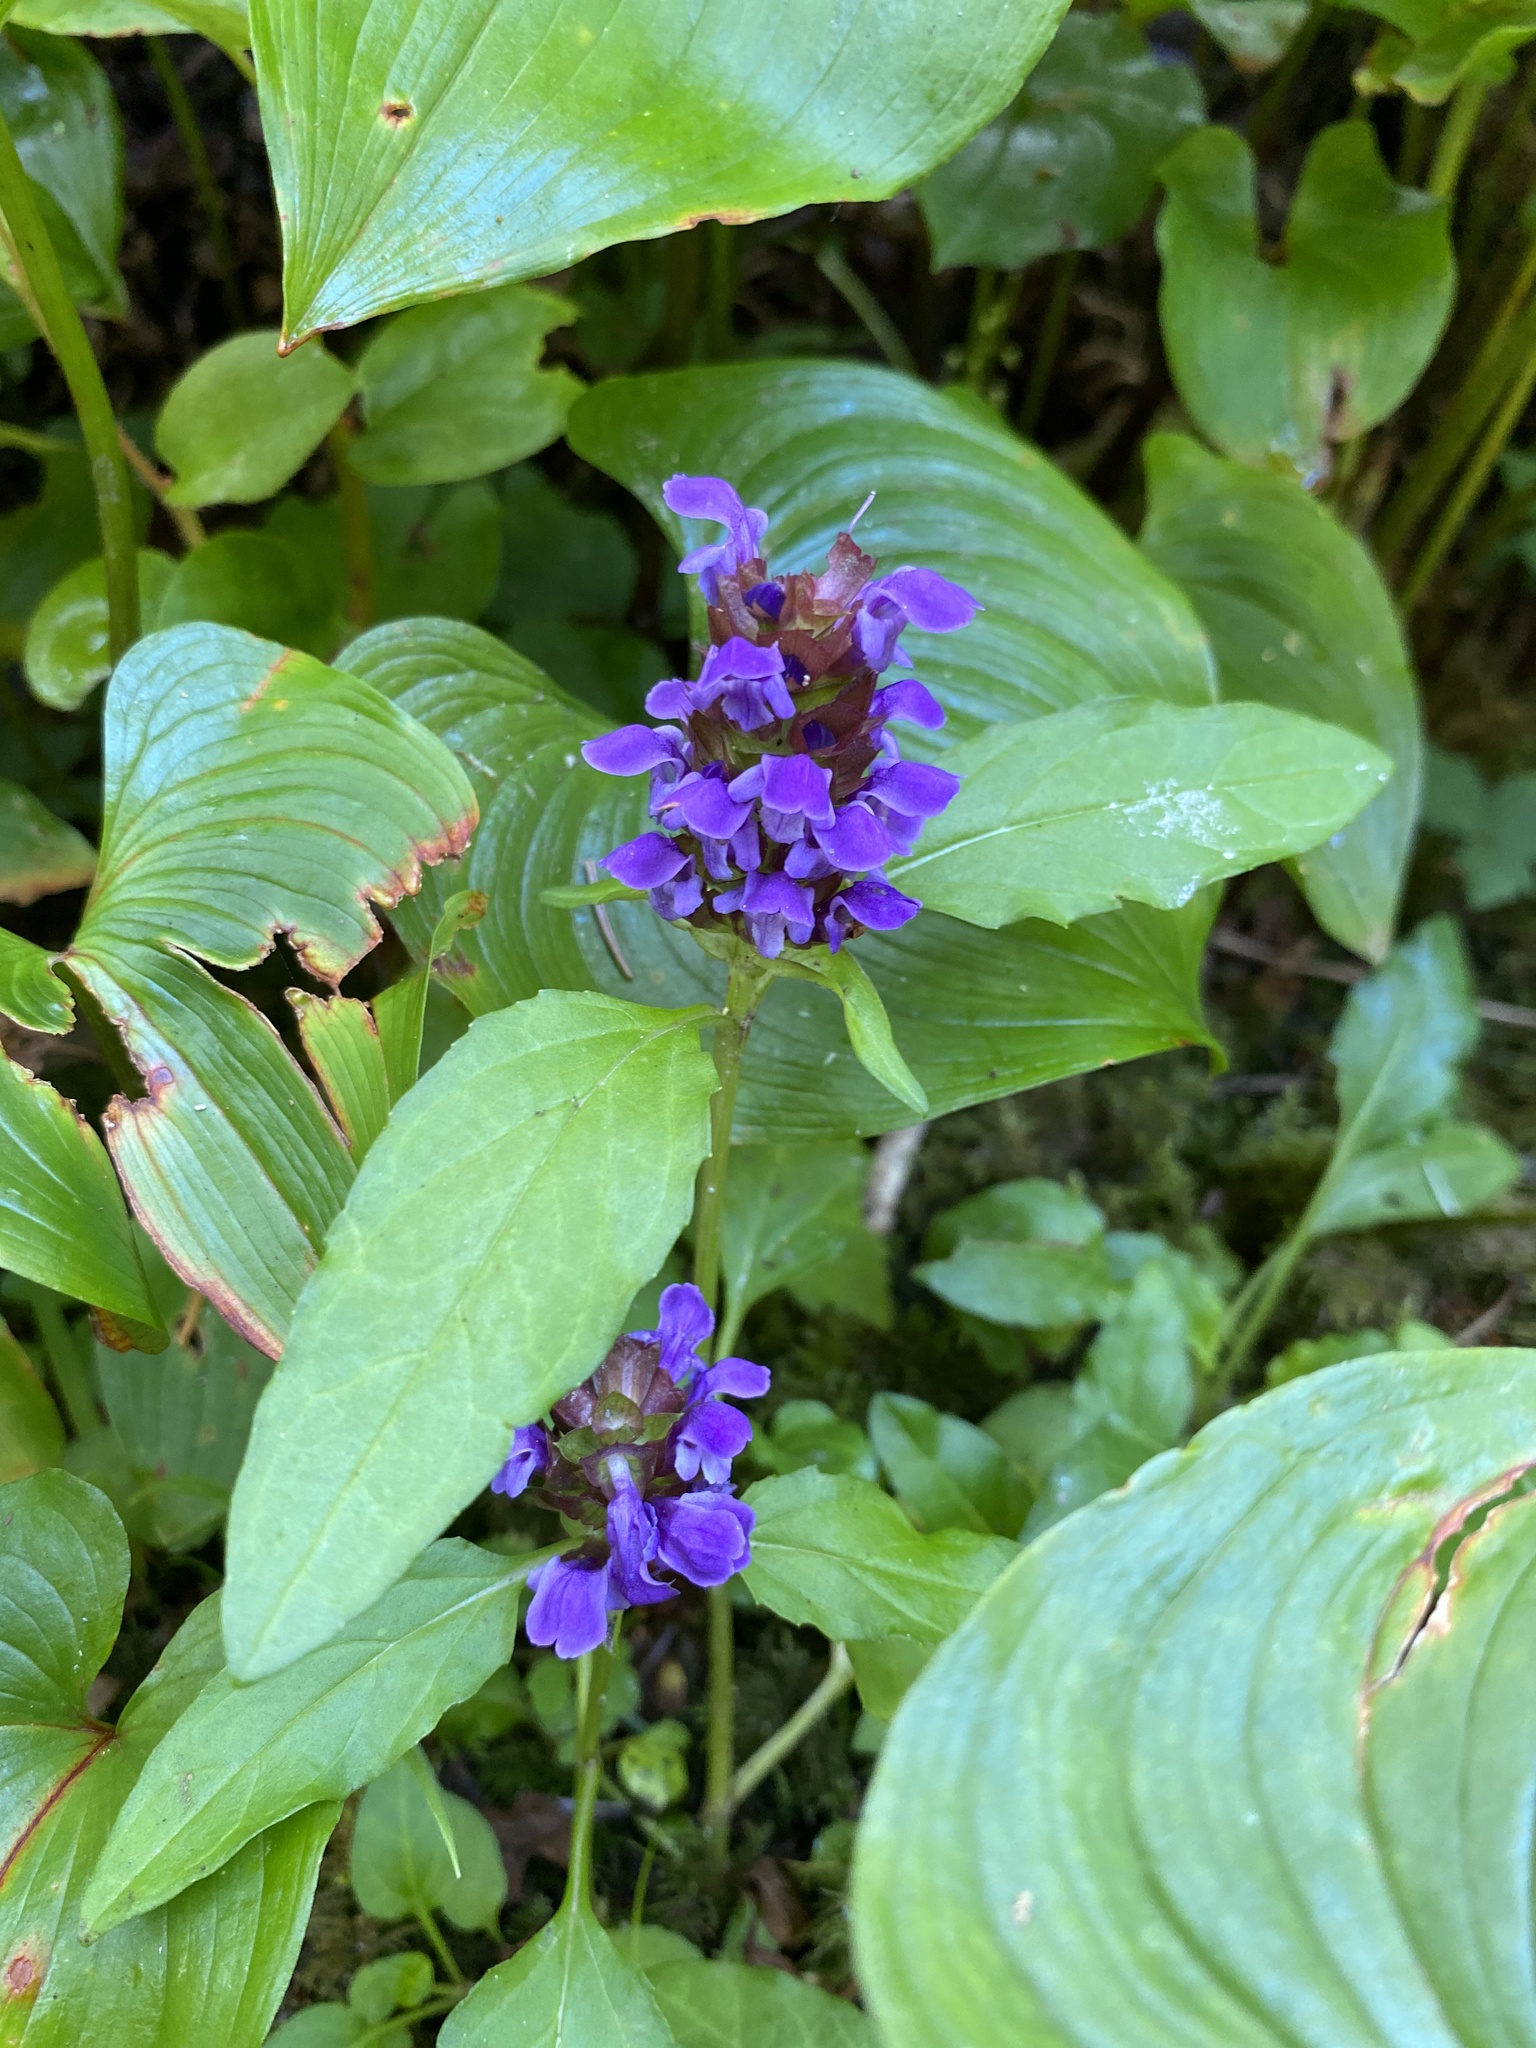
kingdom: Plantae
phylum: Tracheophyta
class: Magnoliopsida
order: Lamiales
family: Lamiaceae
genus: Prunella
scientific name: Prunella vulgaris
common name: Heal-all
